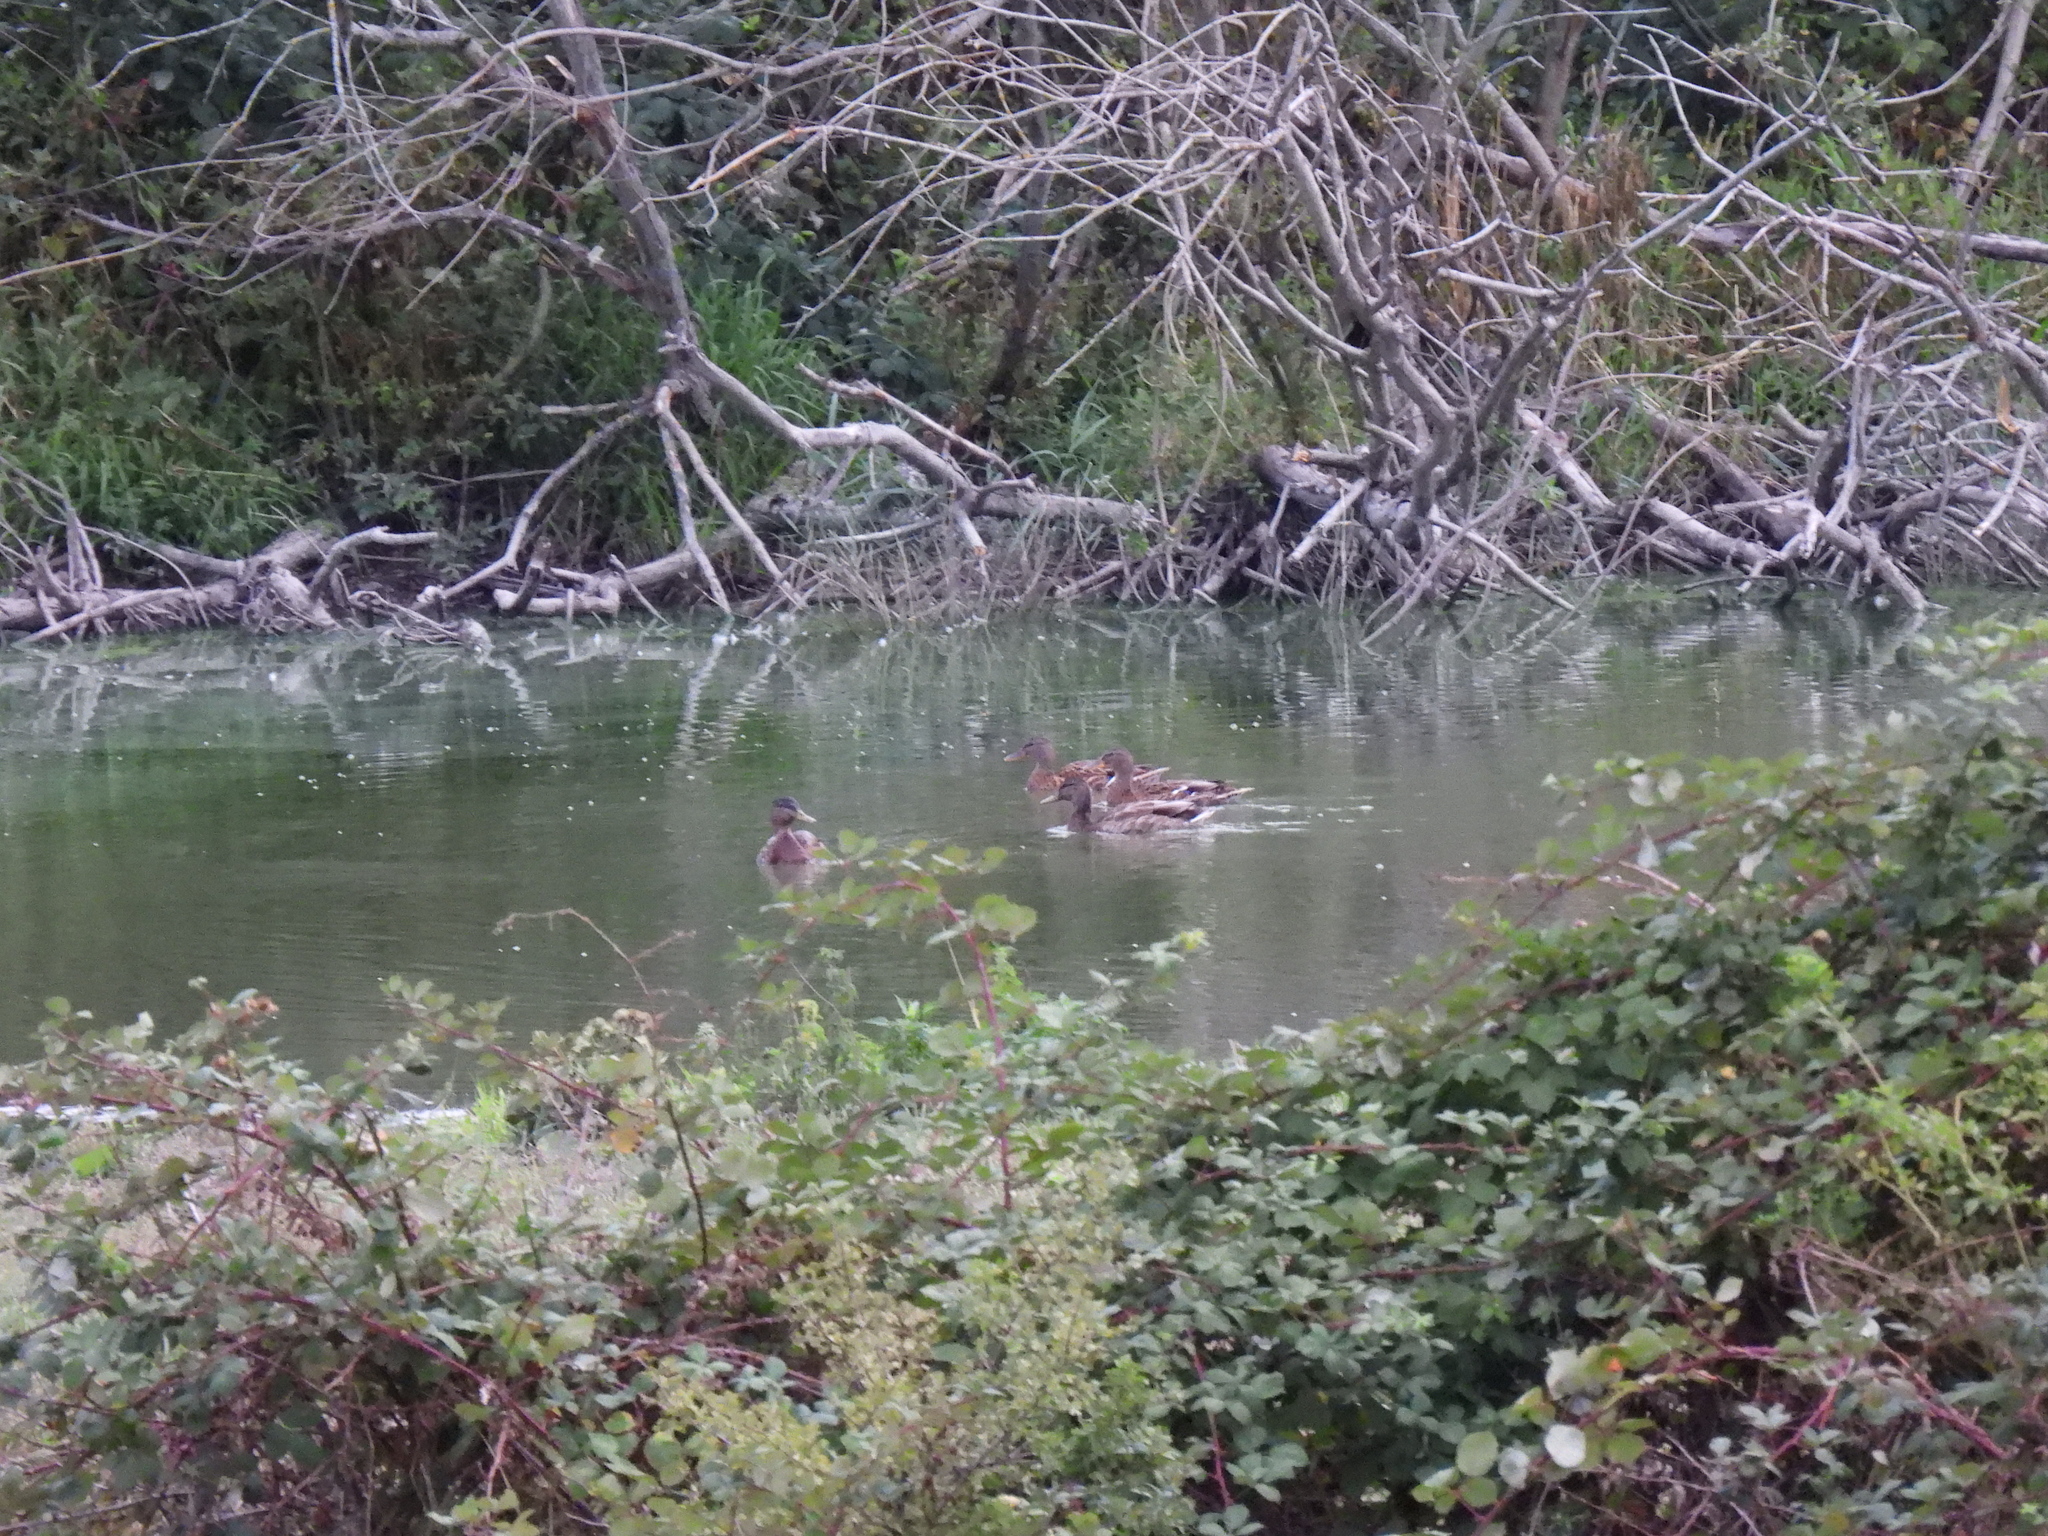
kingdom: Animalia
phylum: Chordata
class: Aves
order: Anseriformes
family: Anatidae
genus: Anas
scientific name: Anas platyrhynchos
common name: Mallard
